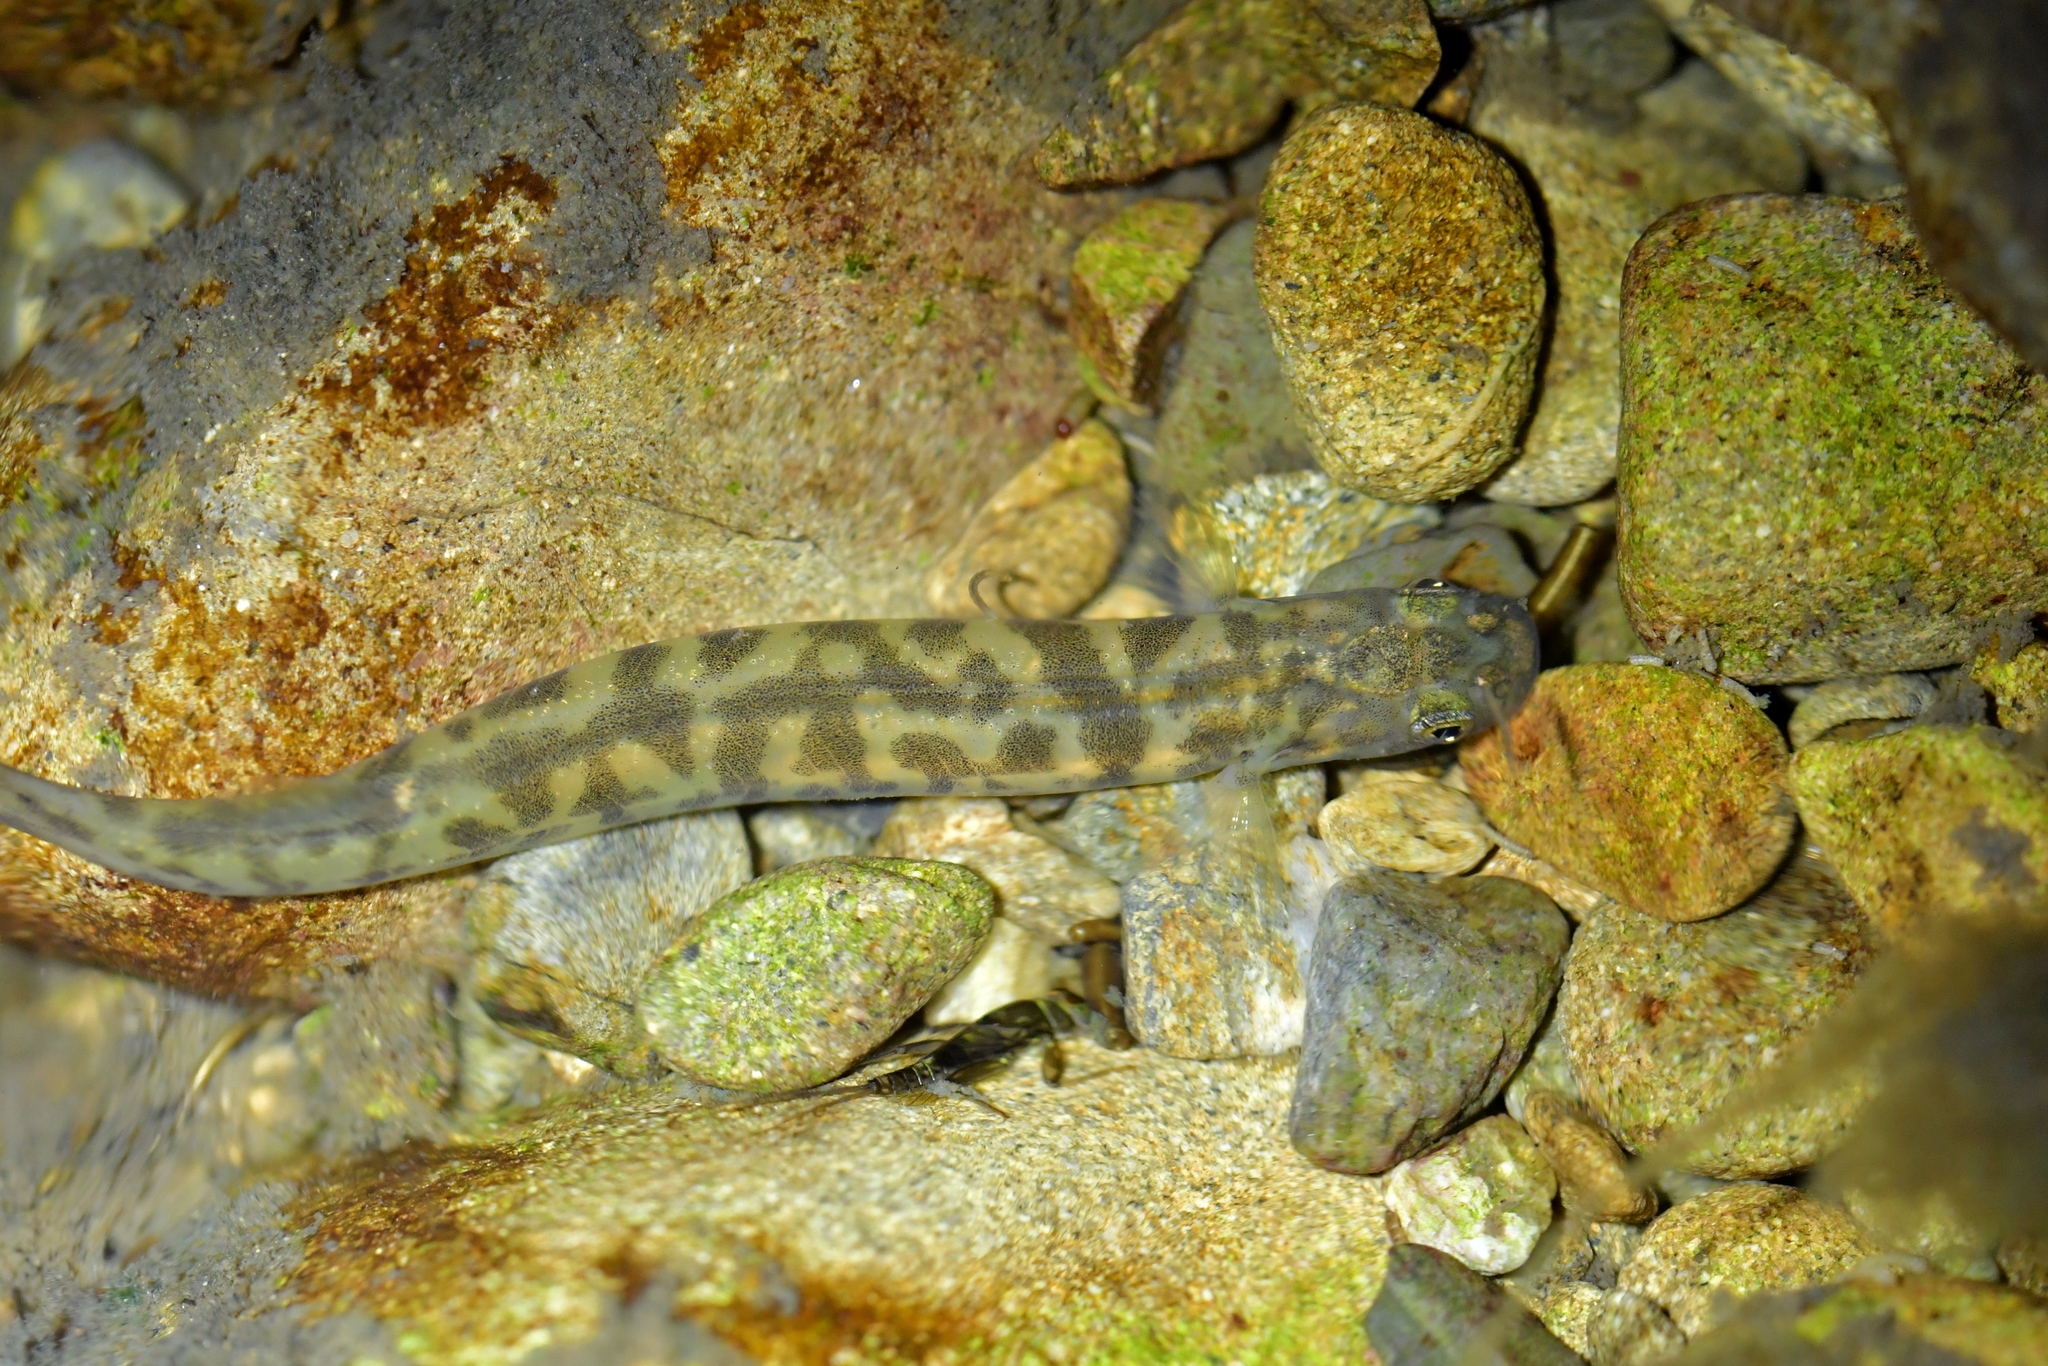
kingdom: Animalia
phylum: Chordata
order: Osmeriformes
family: Galaxiidae
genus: Galaxias
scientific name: Galaxias brevipinnis
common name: Koaro
